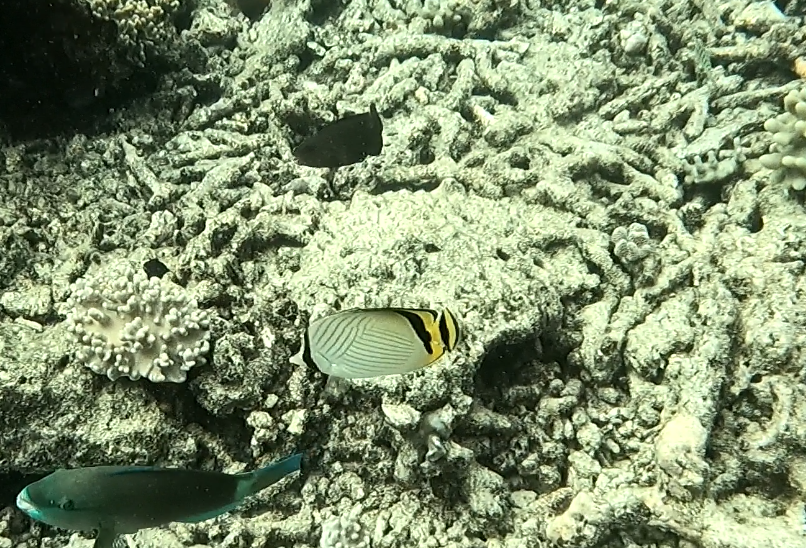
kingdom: Animalia
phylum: Chordata
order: Perciformes
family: Chaetodontidae
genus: Chaetodon
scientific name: Chaetodon vagabundus
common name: Vagabond butterflyfish
